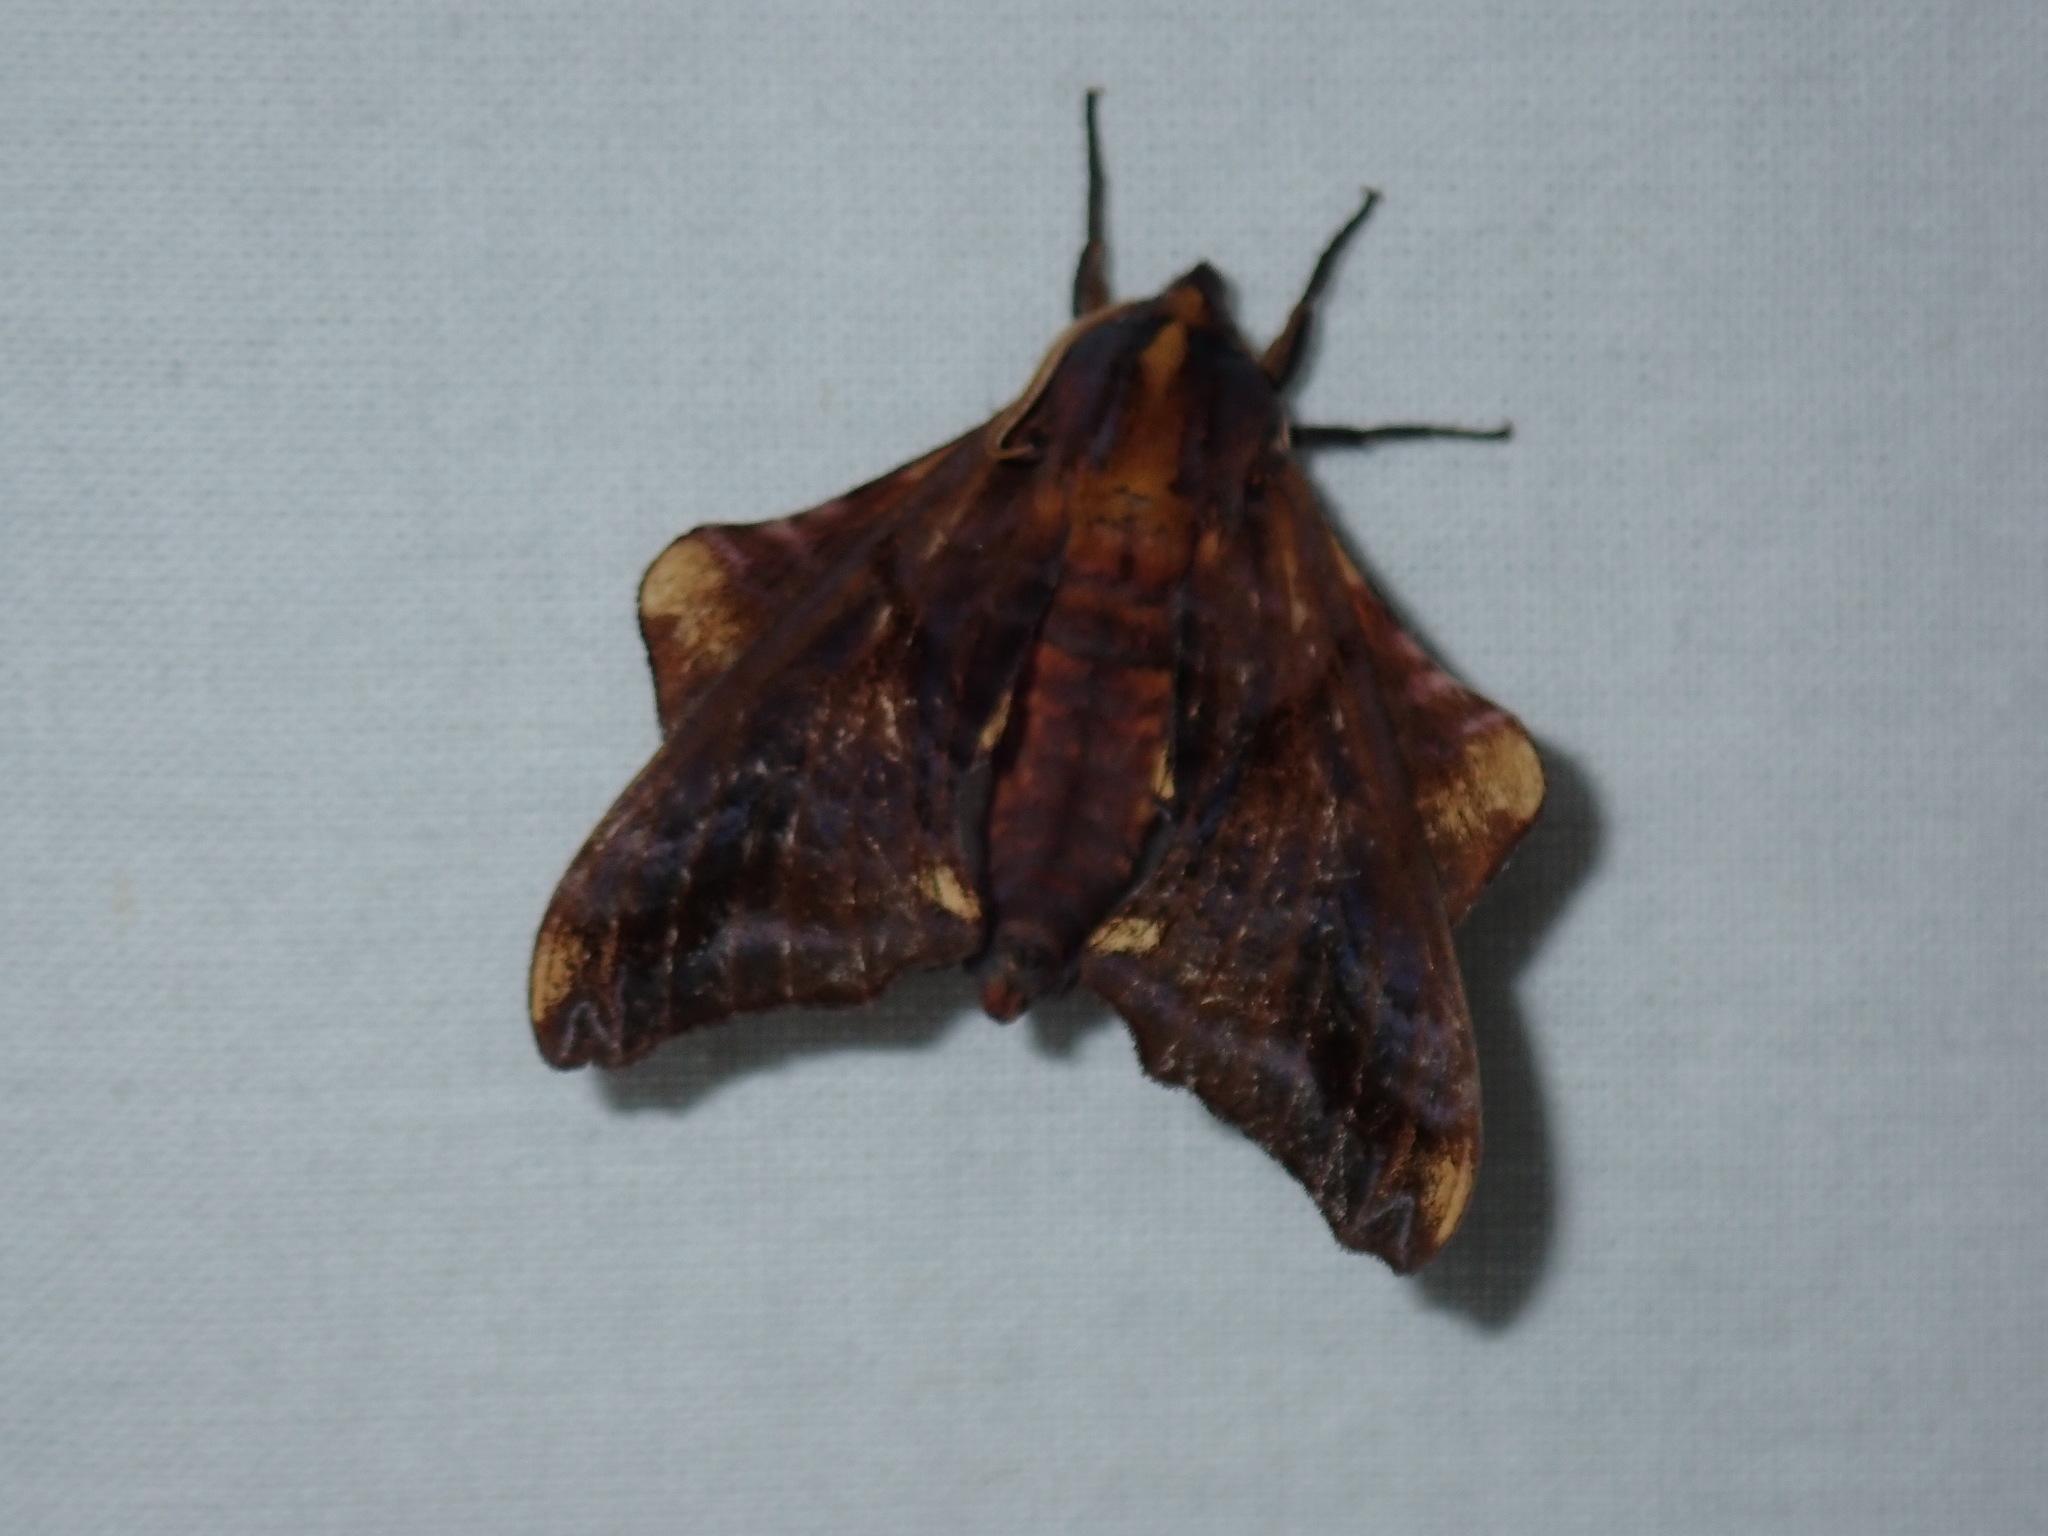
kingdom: Animalia
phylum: Arthropoda
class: Insecta
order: Lepidoptera
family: Sphingidae
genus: Paonias
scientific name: Paonias myops
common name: Small-eyed sphinx
